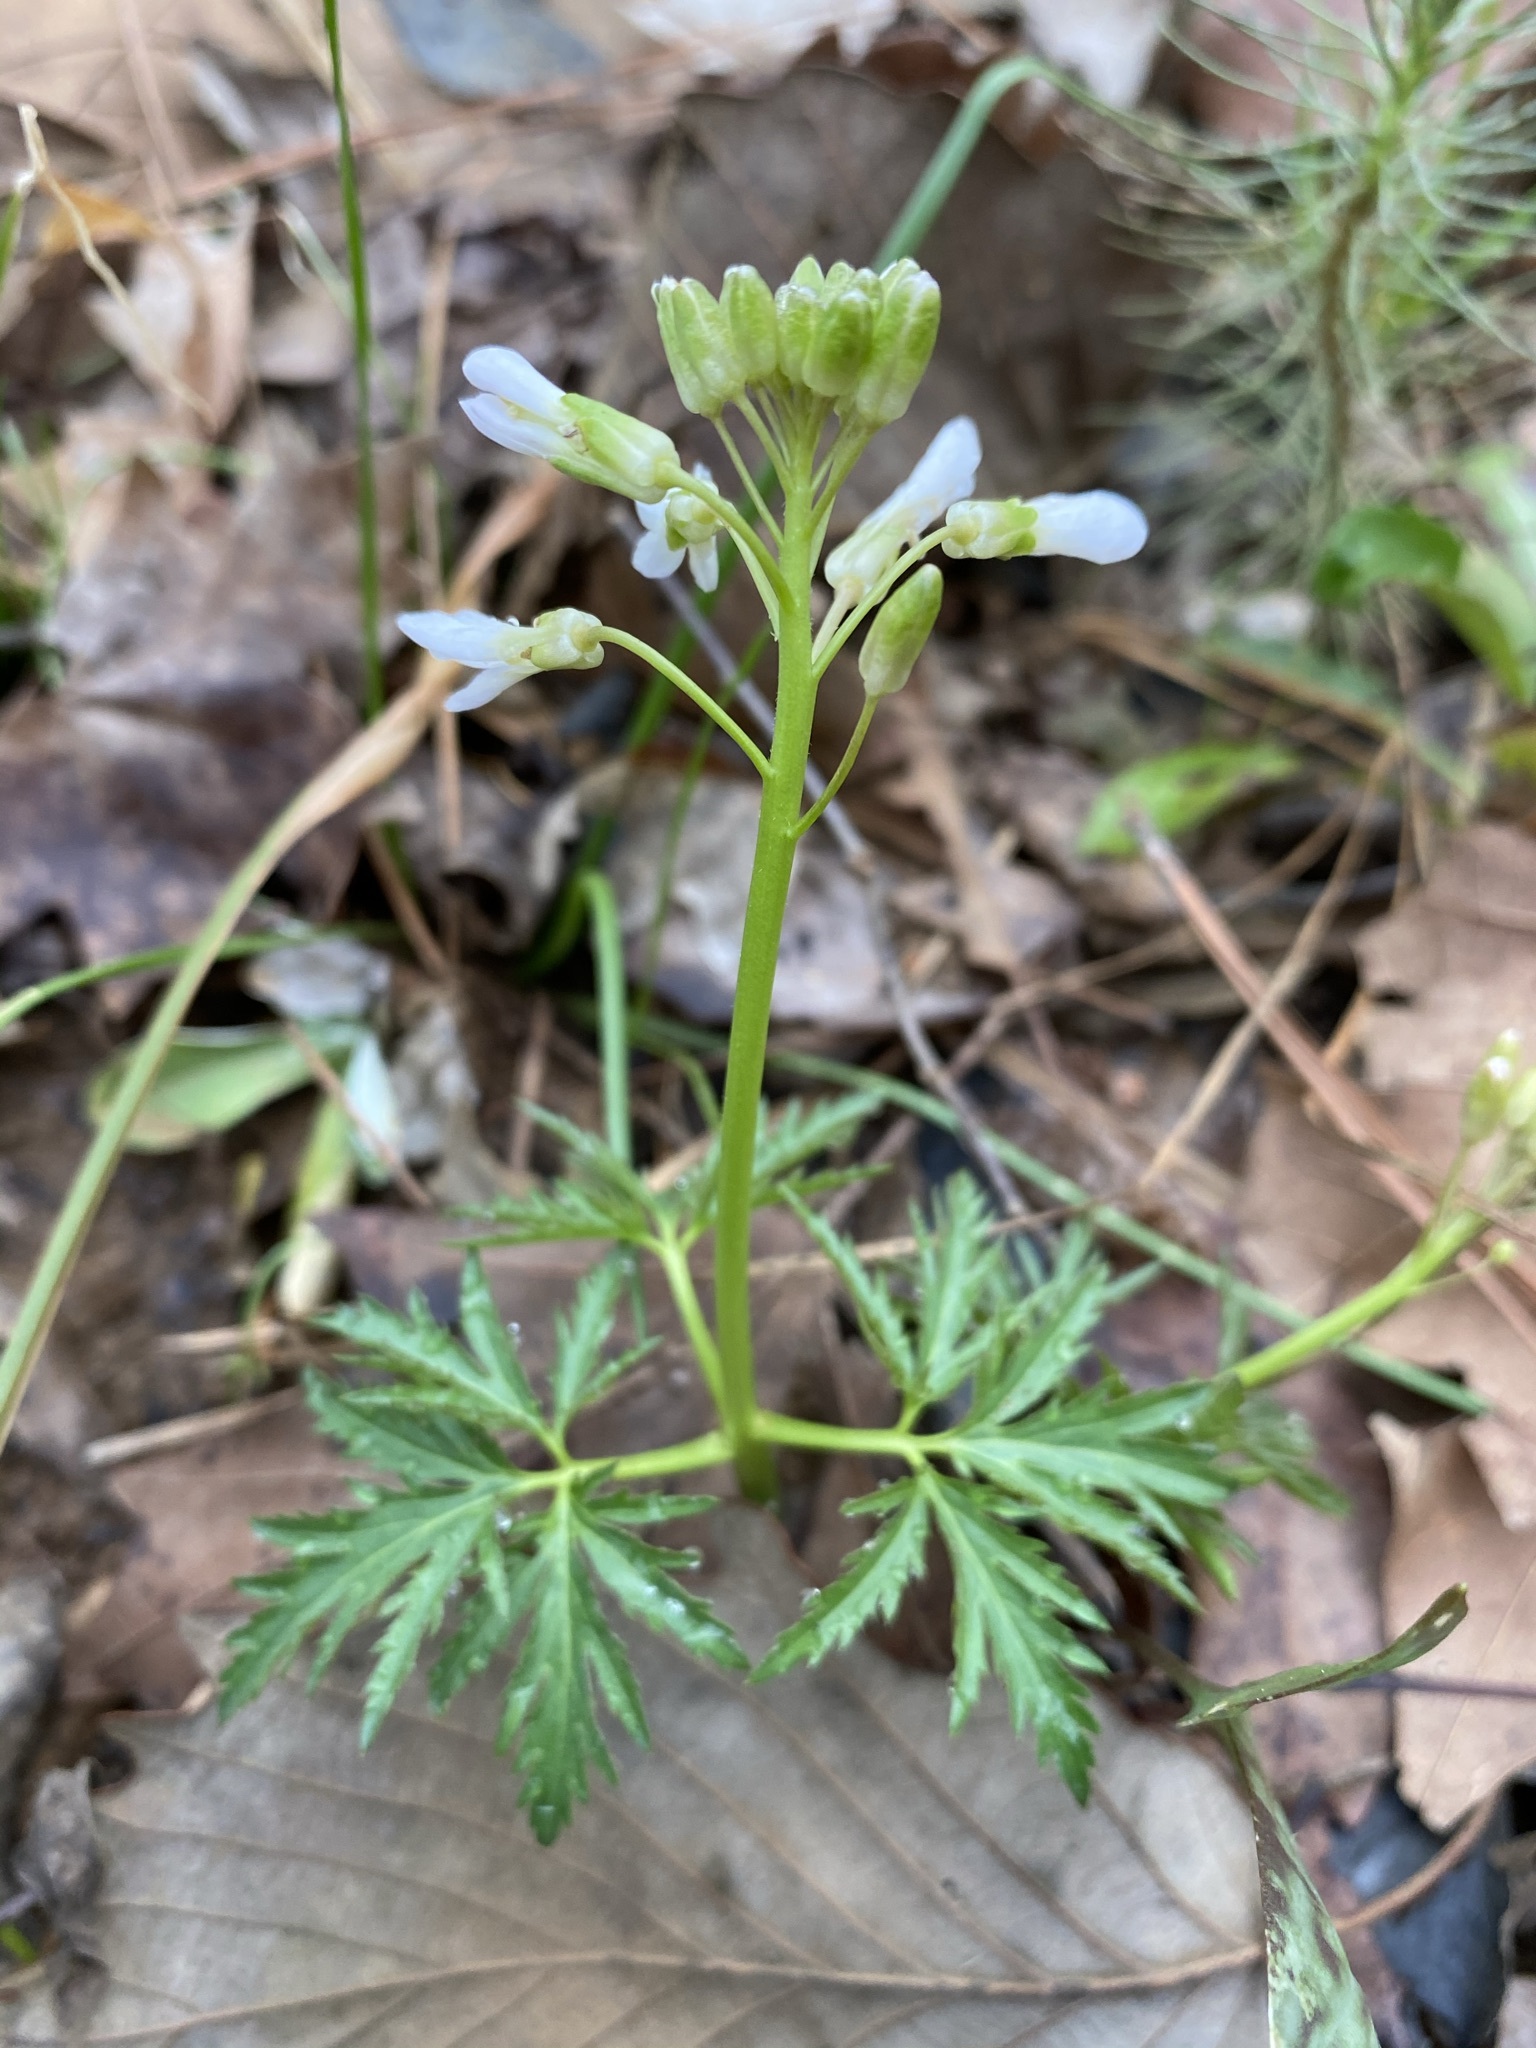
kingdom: Plantae
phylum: Tracheophyta
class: Magnoliopsida
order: Brassicales
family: Brassicaceae
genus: Cardamine
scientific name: Cardamine concatenata
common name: Cut-leaf toothcup
